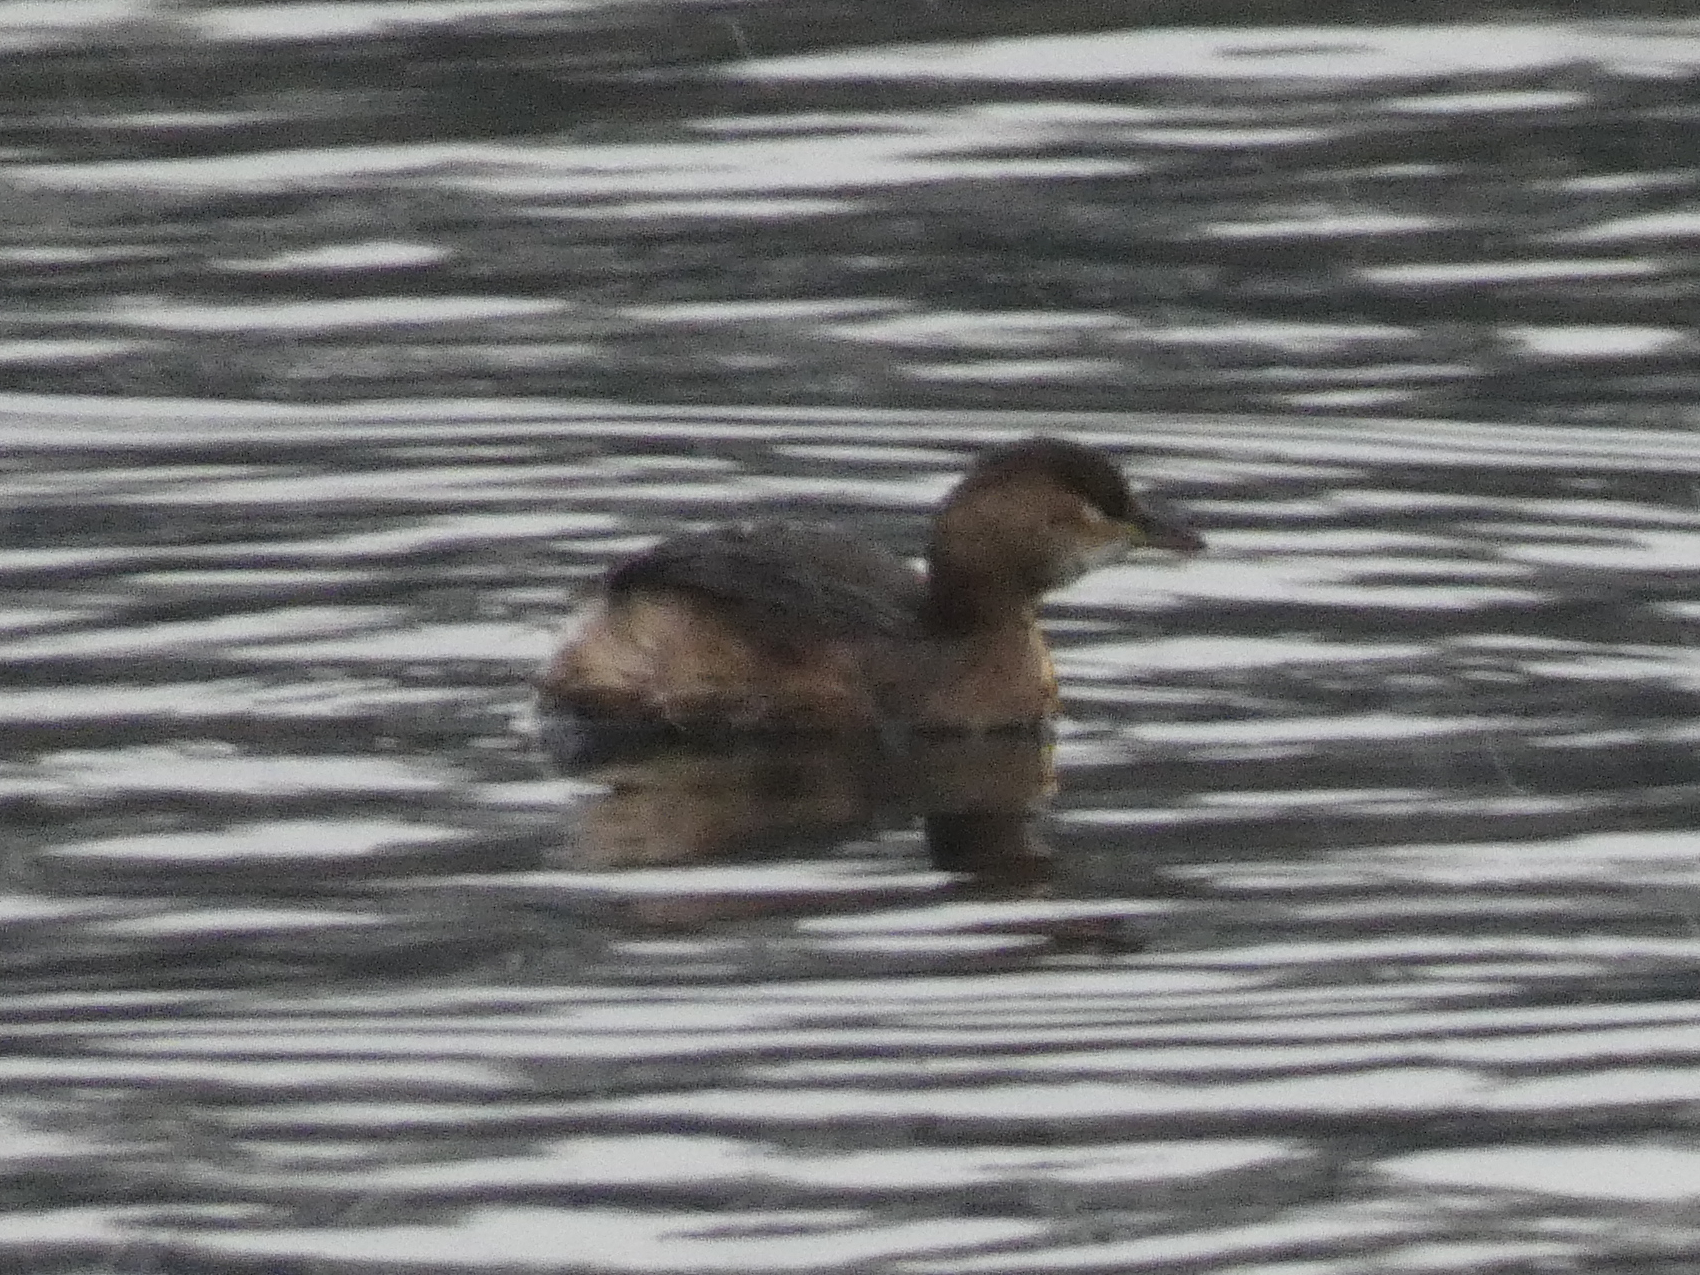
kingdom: Animalia
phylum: Chordata
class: Aves
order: Podicipediformes
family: Podicipedidae
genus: Tachybaptus
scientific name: Tachybaptus ruficollis
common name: Little grebe
